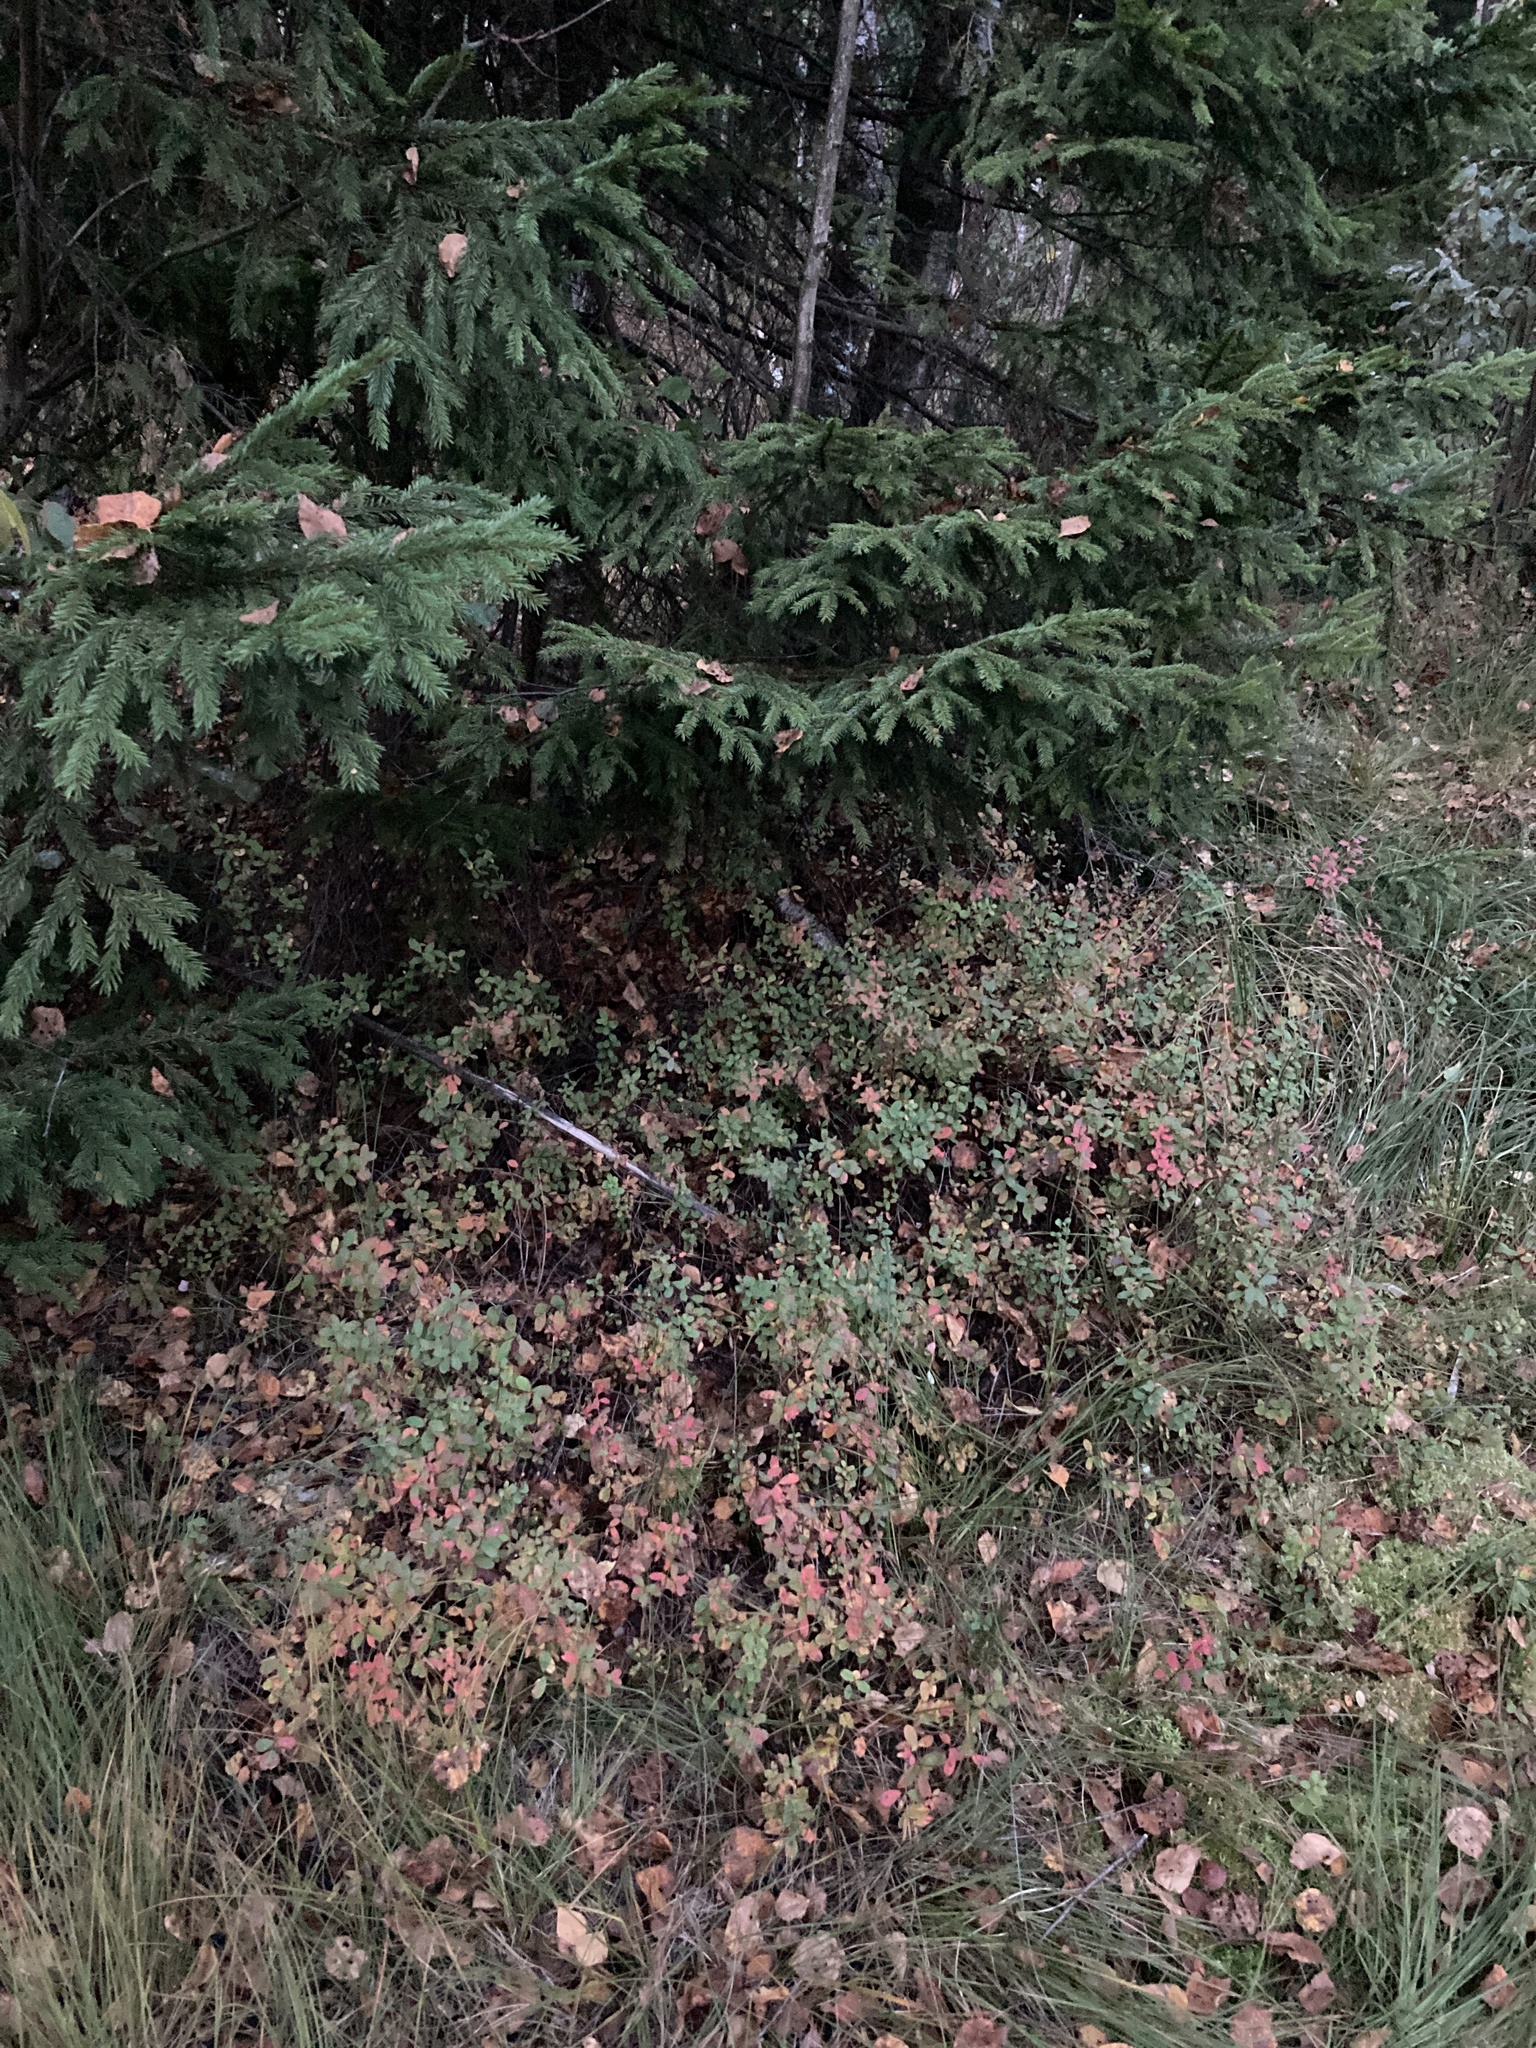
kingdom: Plantae
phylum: Tracheophyta
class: Magnoliopsida
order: Ericales
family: Ericaceae
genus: Vaccinium
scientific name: Vaccinium uliginosum
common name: Bog bilberry
